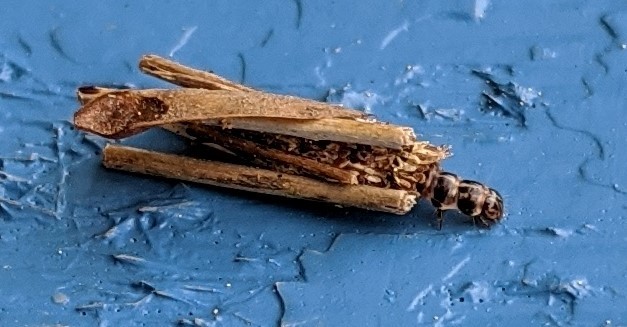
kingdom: Animalia
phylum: Arthropoda
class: Insecta
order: Lepidoptera
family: Psychidae
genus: Psyche
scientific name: Psyche casta
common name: Common sweep
